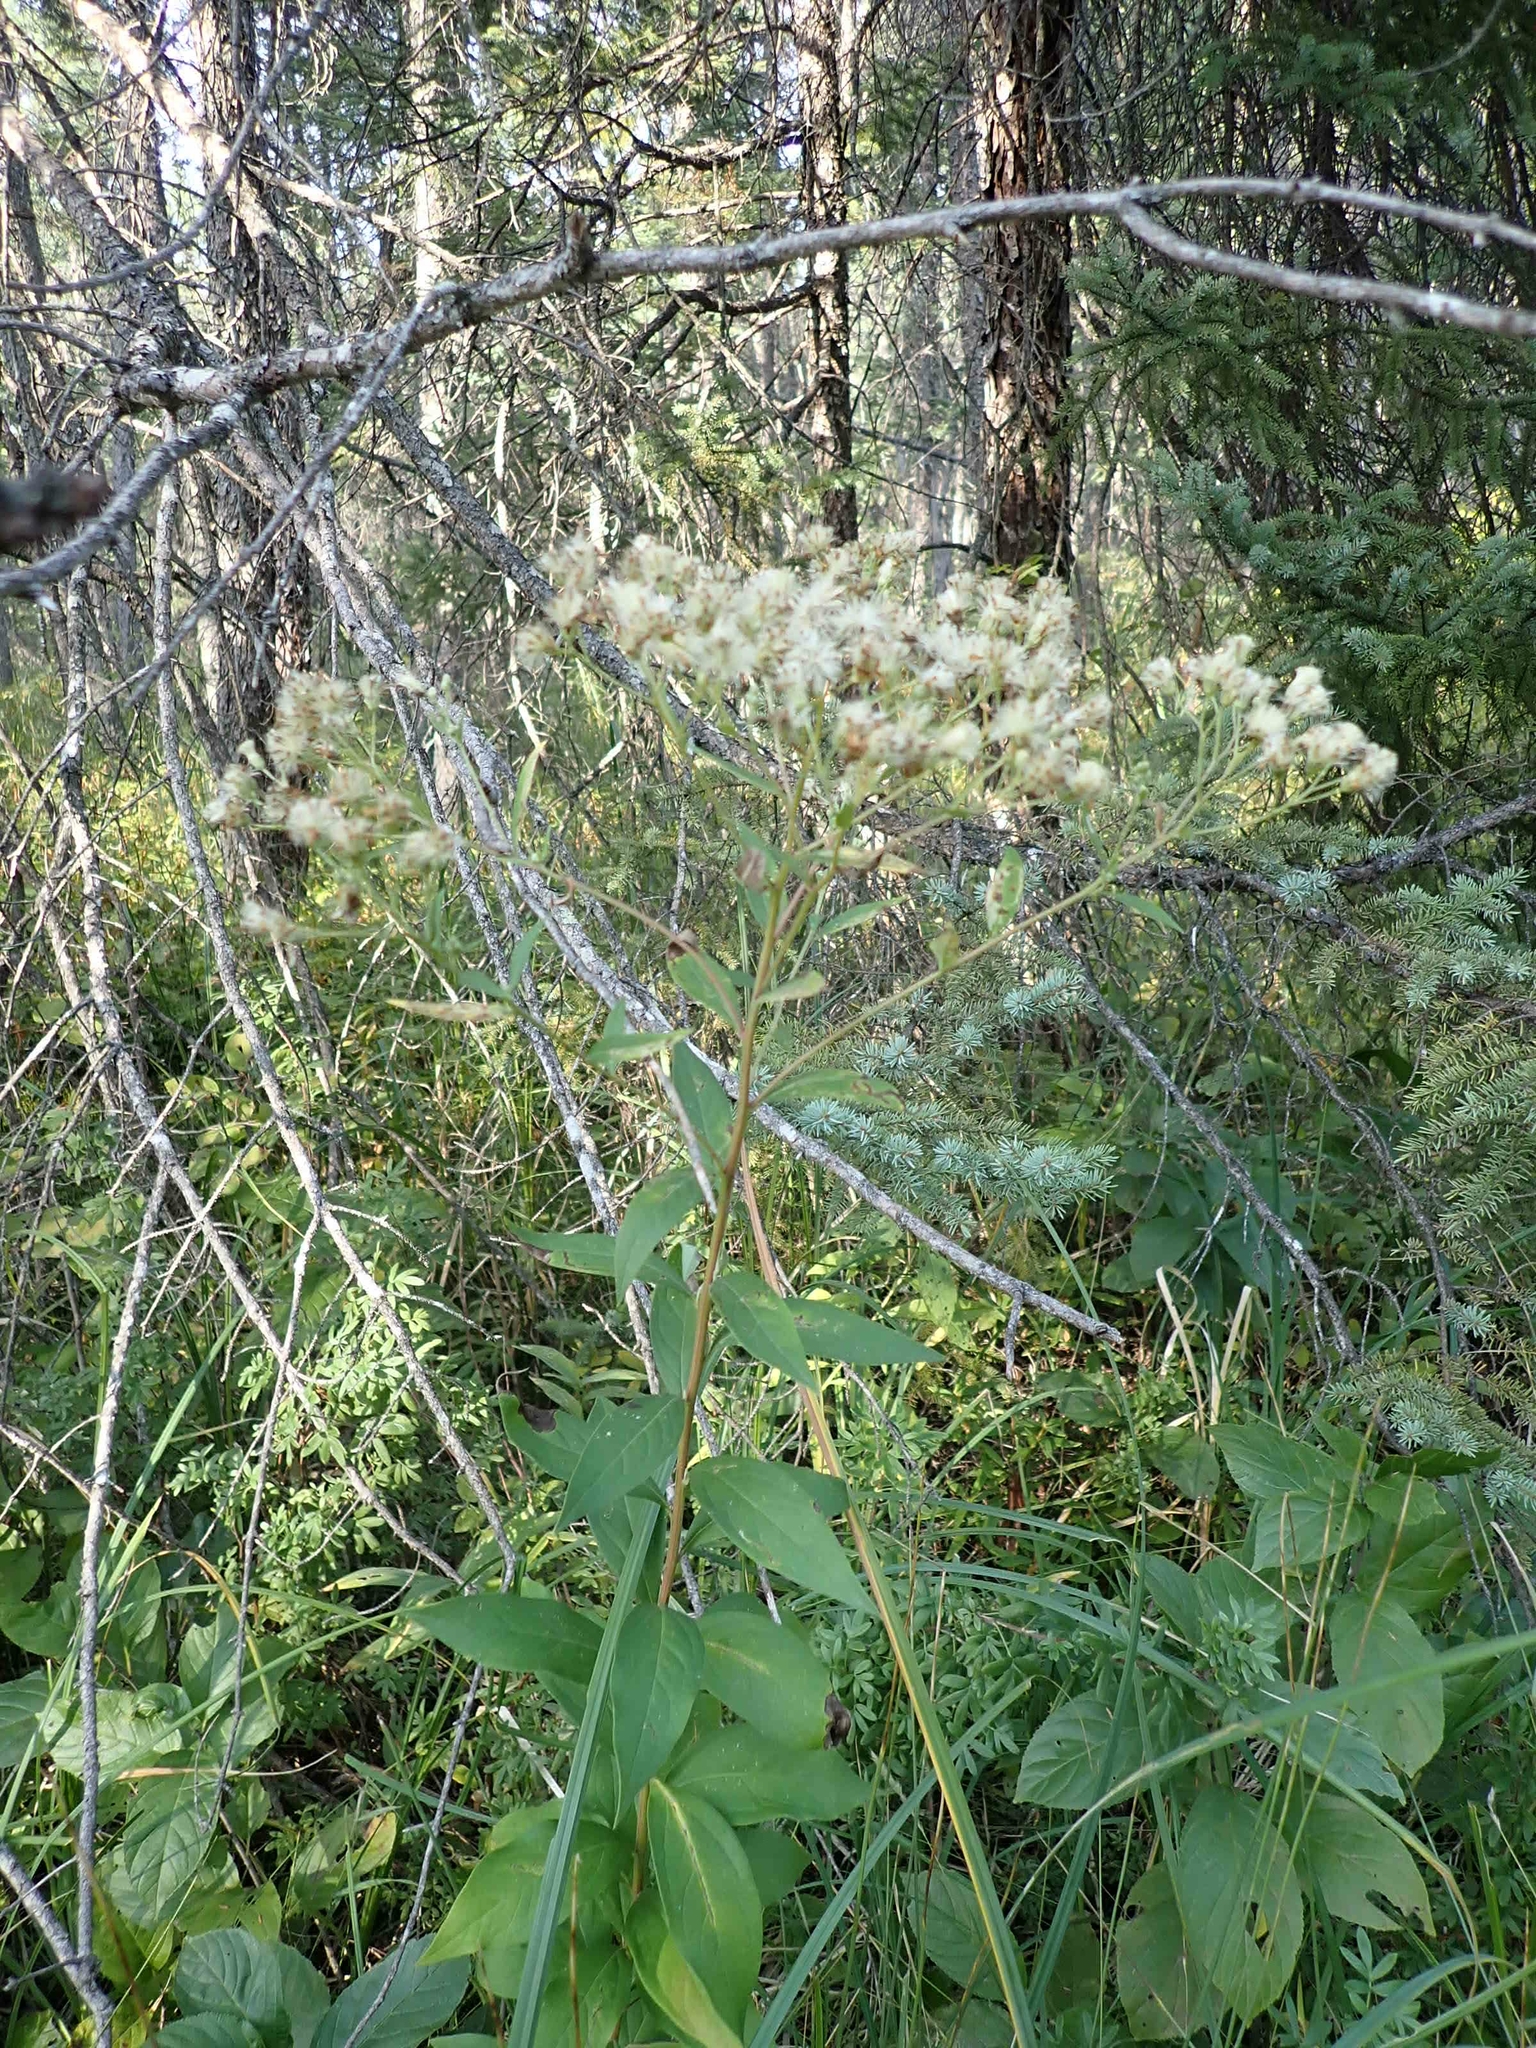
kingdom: Plantae
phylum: Tracheophyta
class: Magnoliopsida
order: Asterales
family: Asteraceae
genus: Doellingeria
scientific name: Doellingeria umbellata
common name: Flat-top white aster
